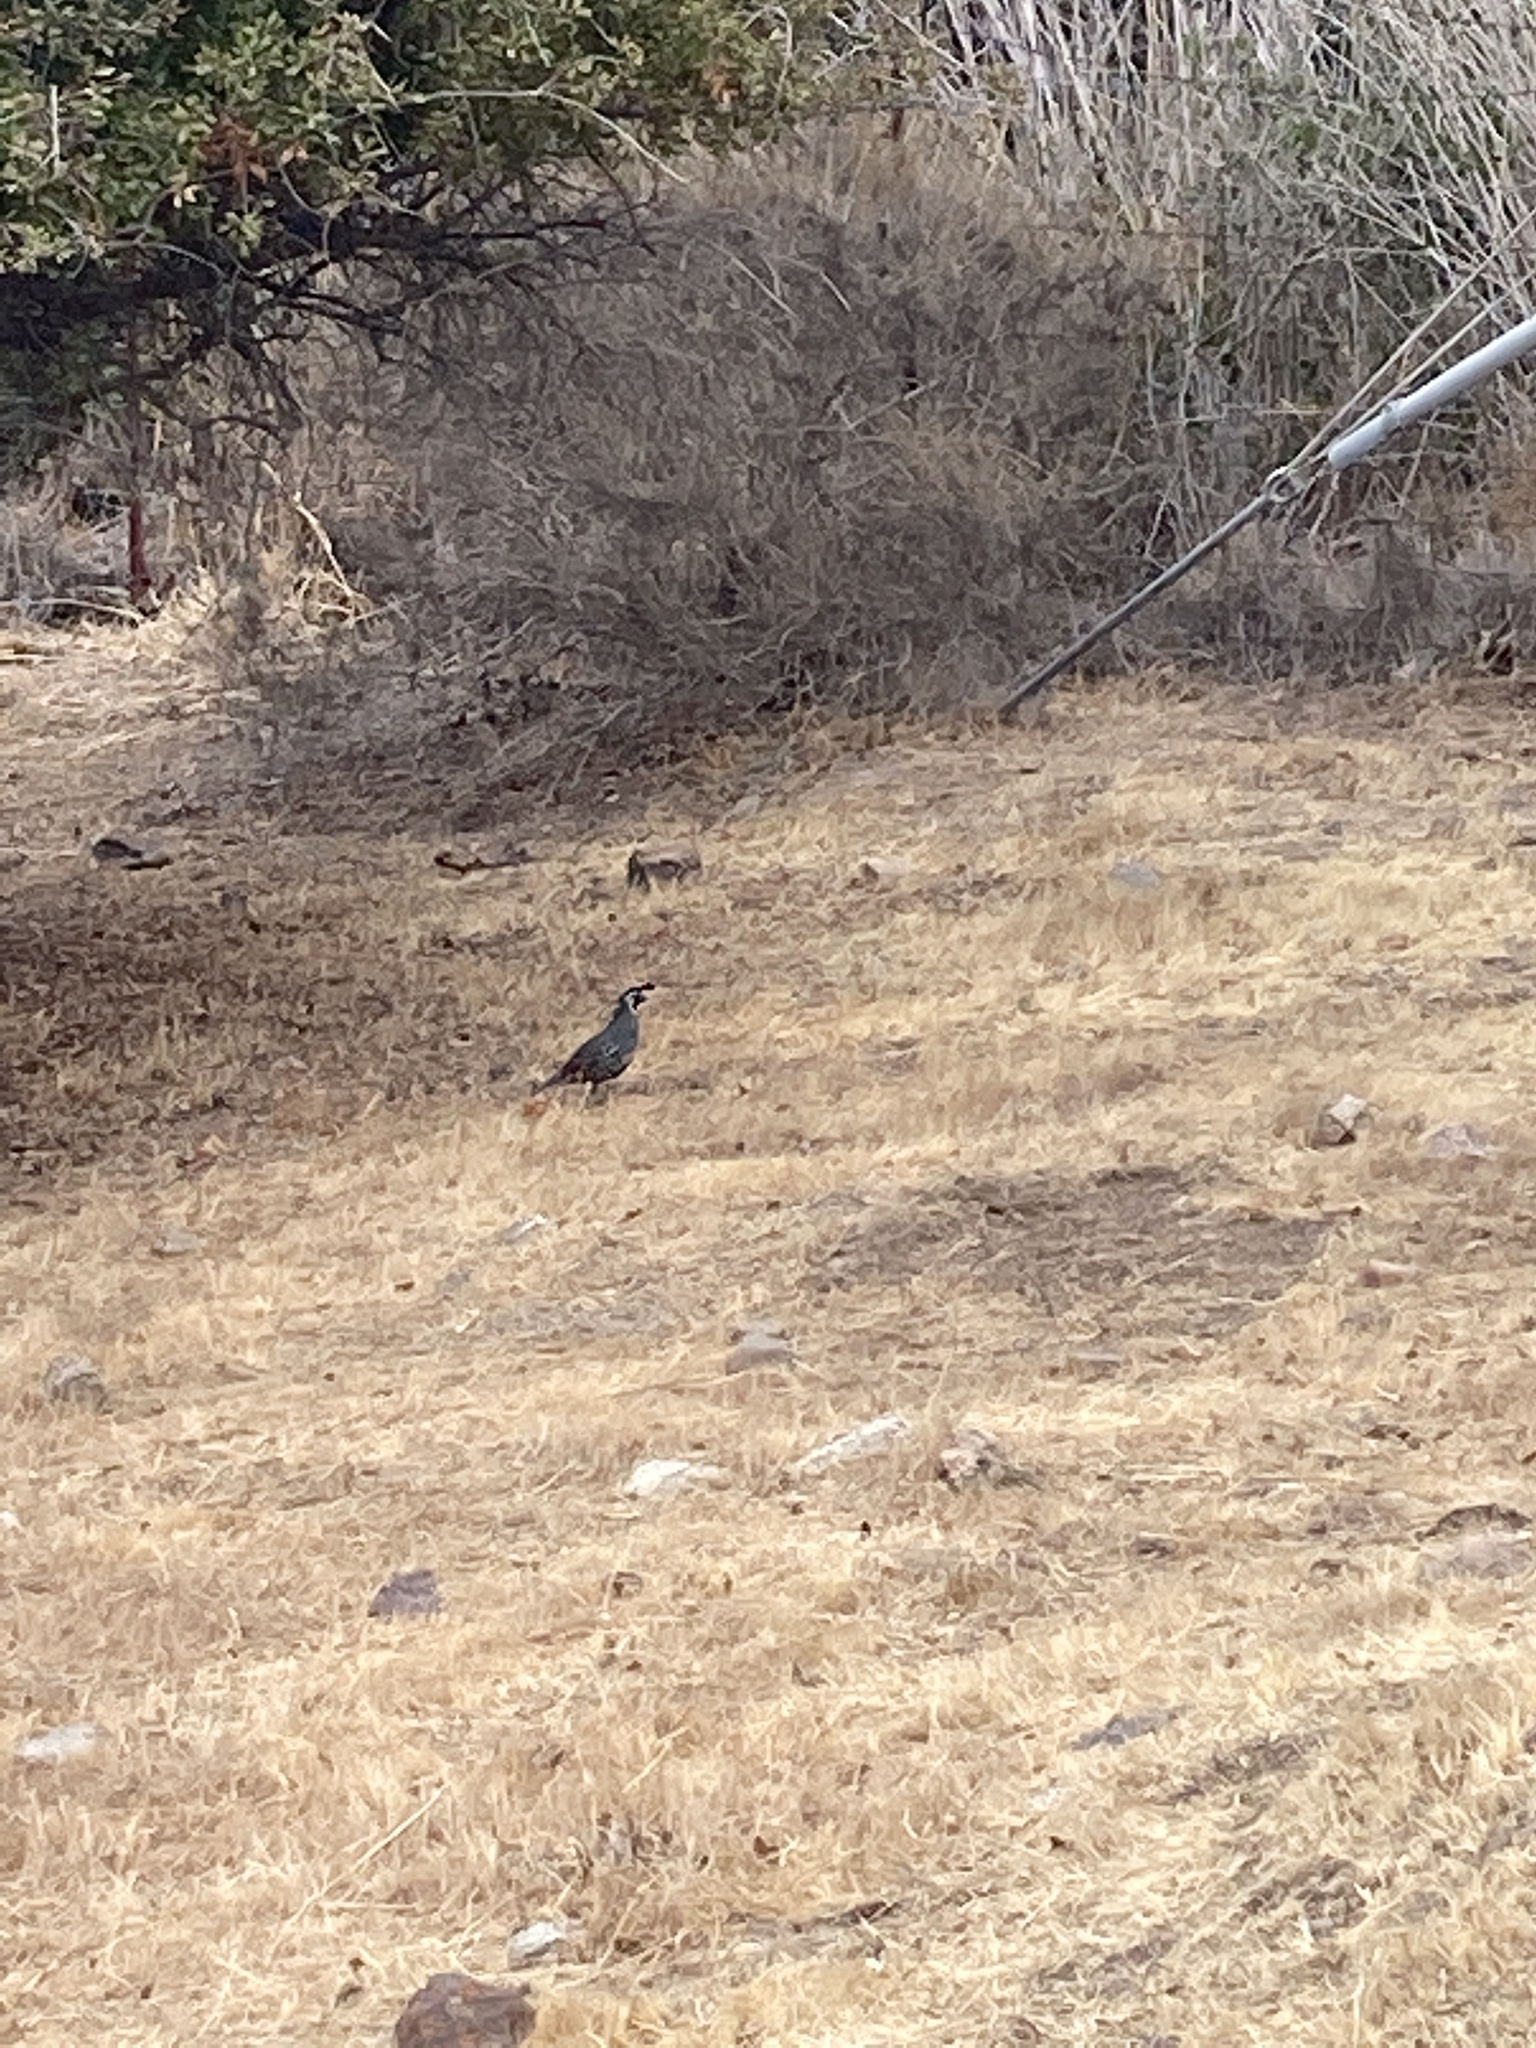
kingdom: Animalia
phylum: Chordata
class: Aves
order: Galliformes
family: Odontophoridae
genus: Callipepla
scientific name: Callipepla californica
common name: California quail
